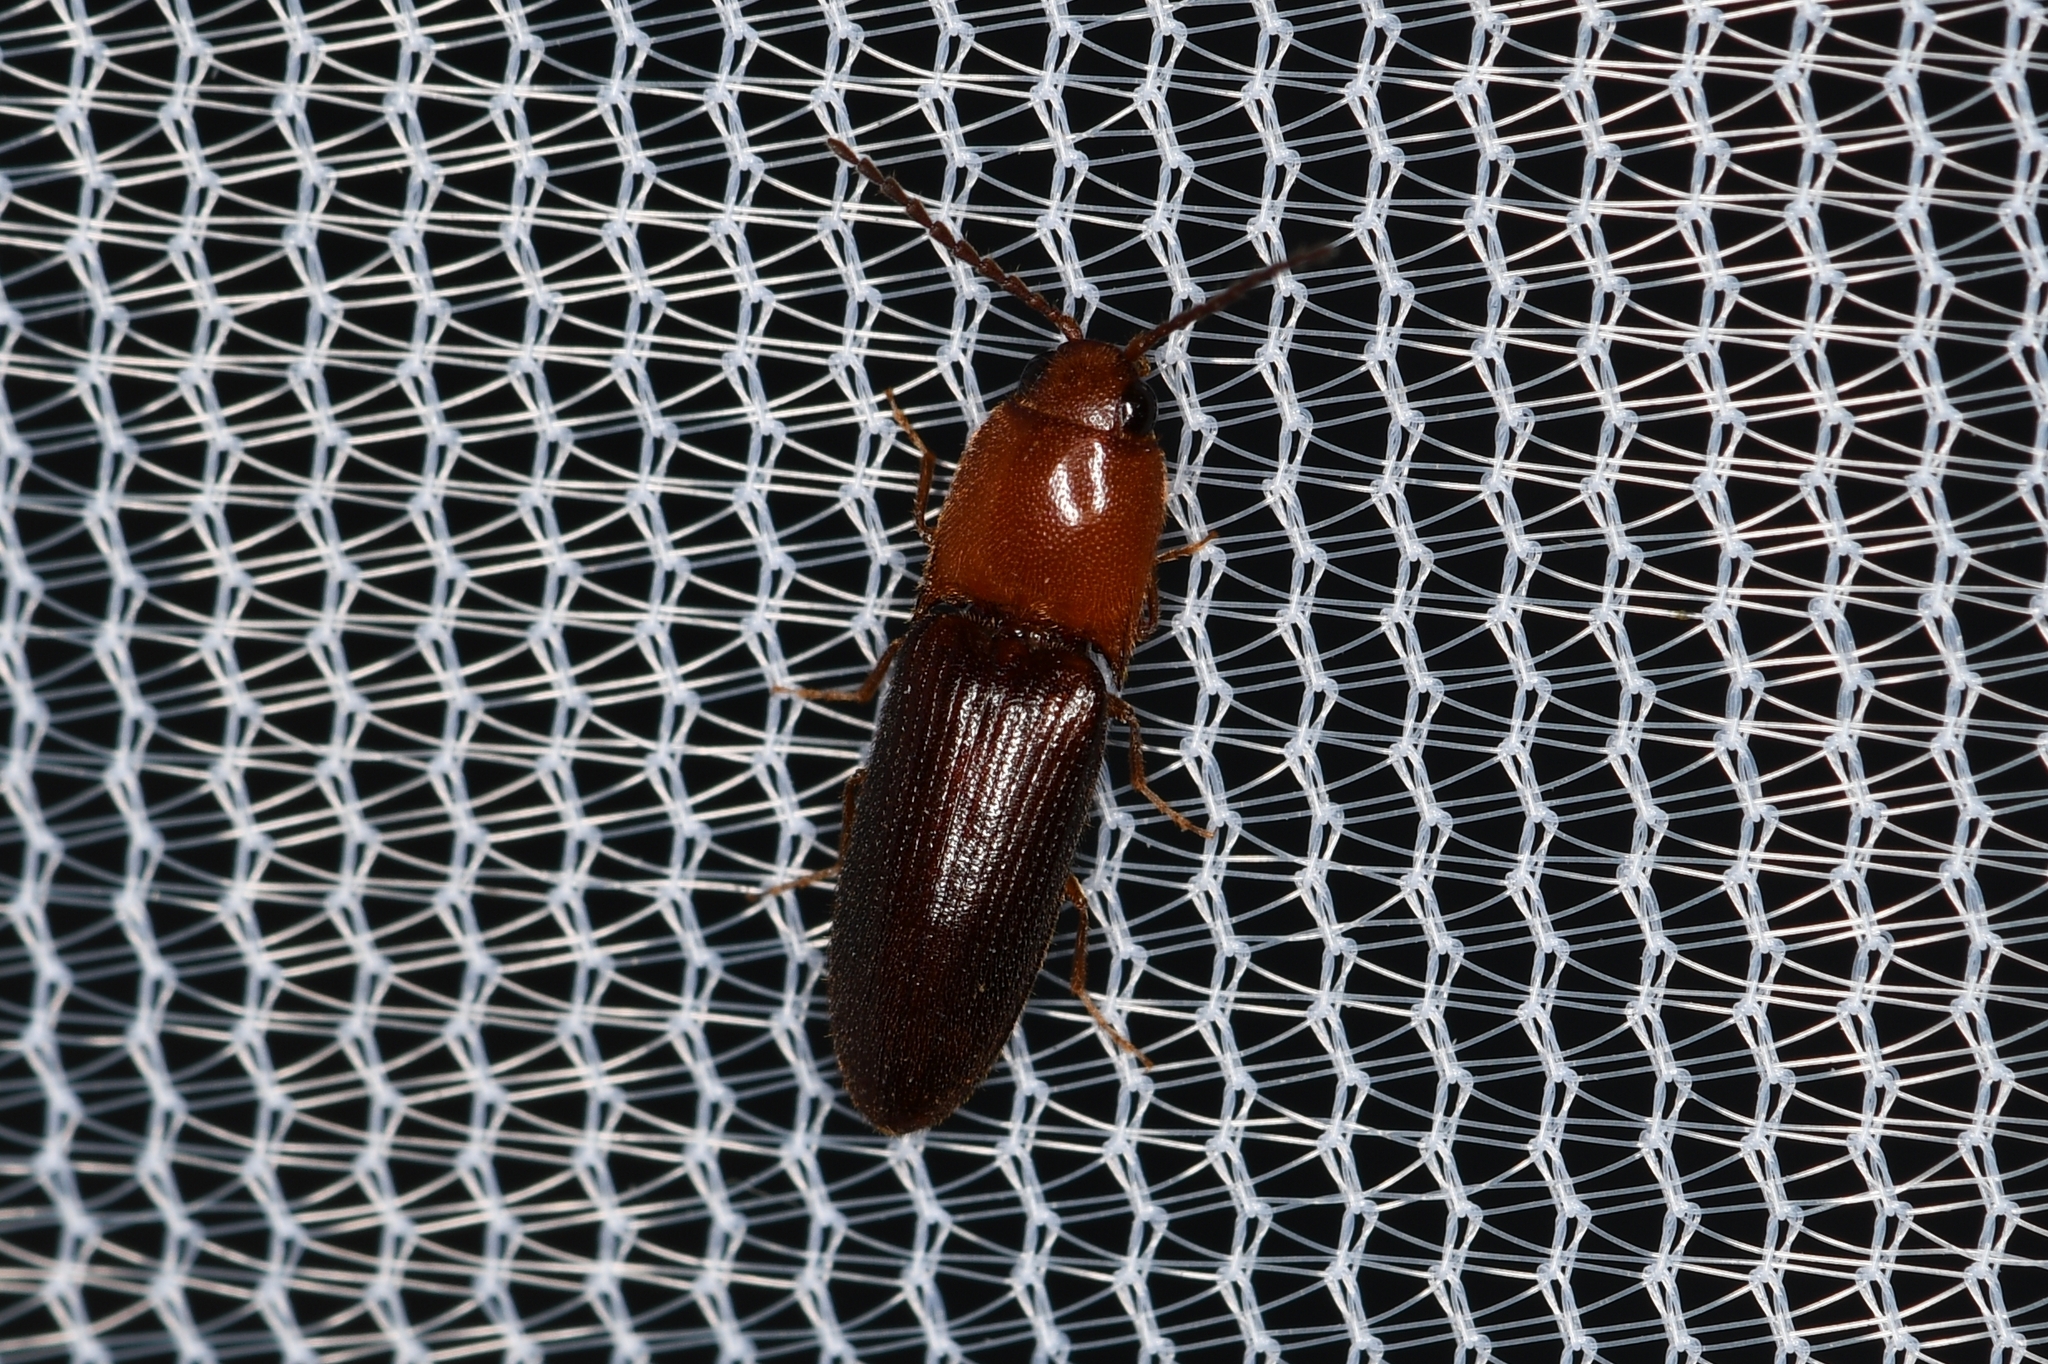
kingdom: Animalia
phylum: Arthropoda
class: Insecta
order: Coleoptera
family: Elateridae
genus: Anchastus
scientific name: Anchastus
